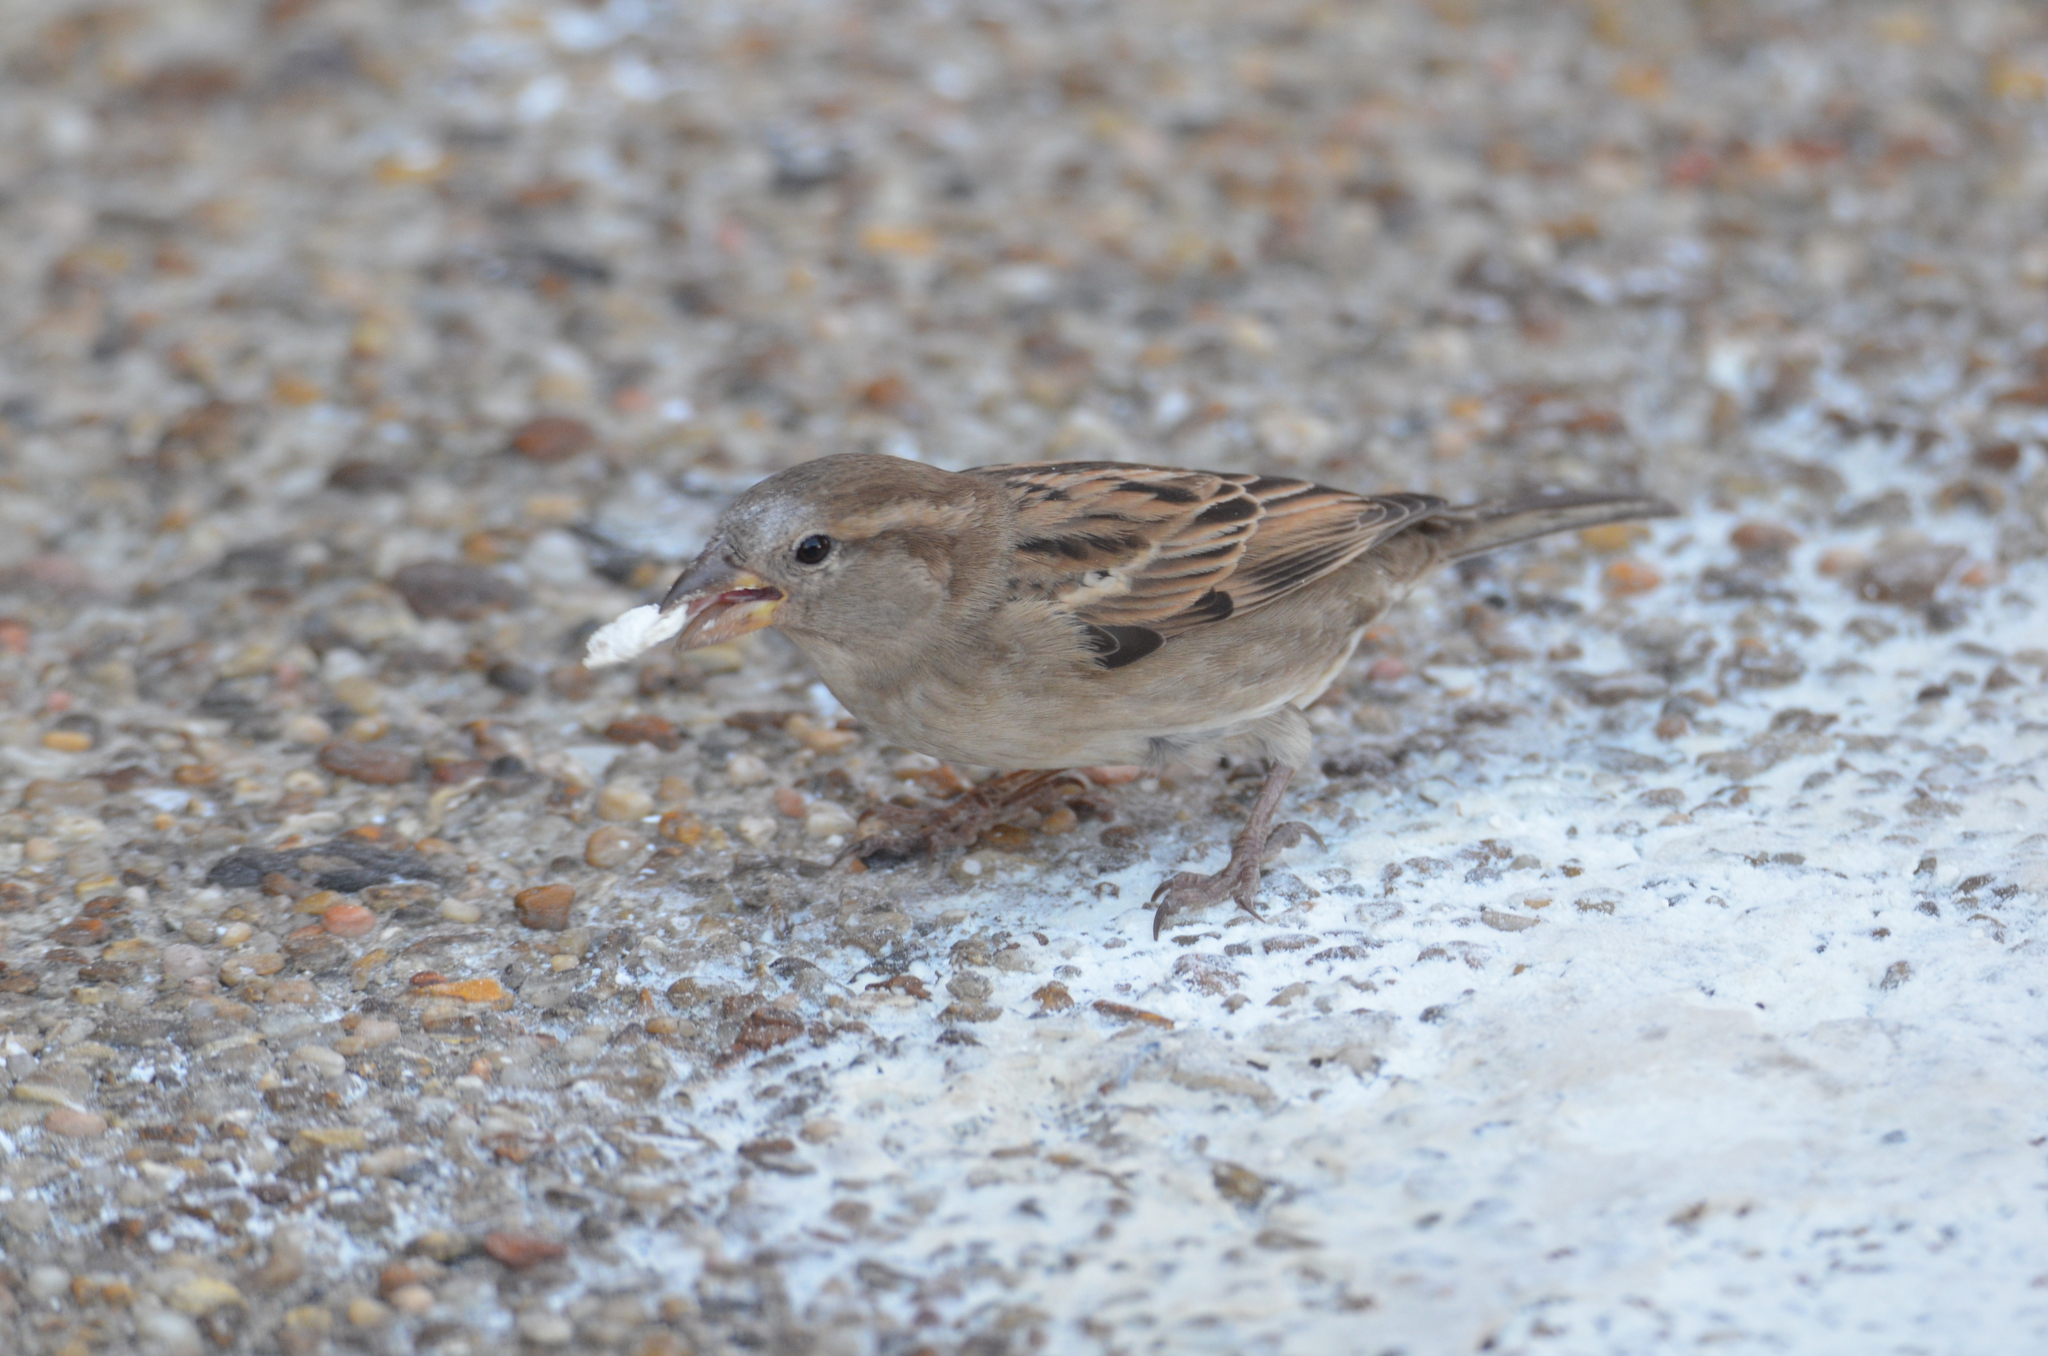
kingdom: Animalia
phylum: Chordata
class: Aves
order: Passeriformes
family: Passeridae
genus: Passer
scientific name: Passer domesticus
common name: House sparrow
